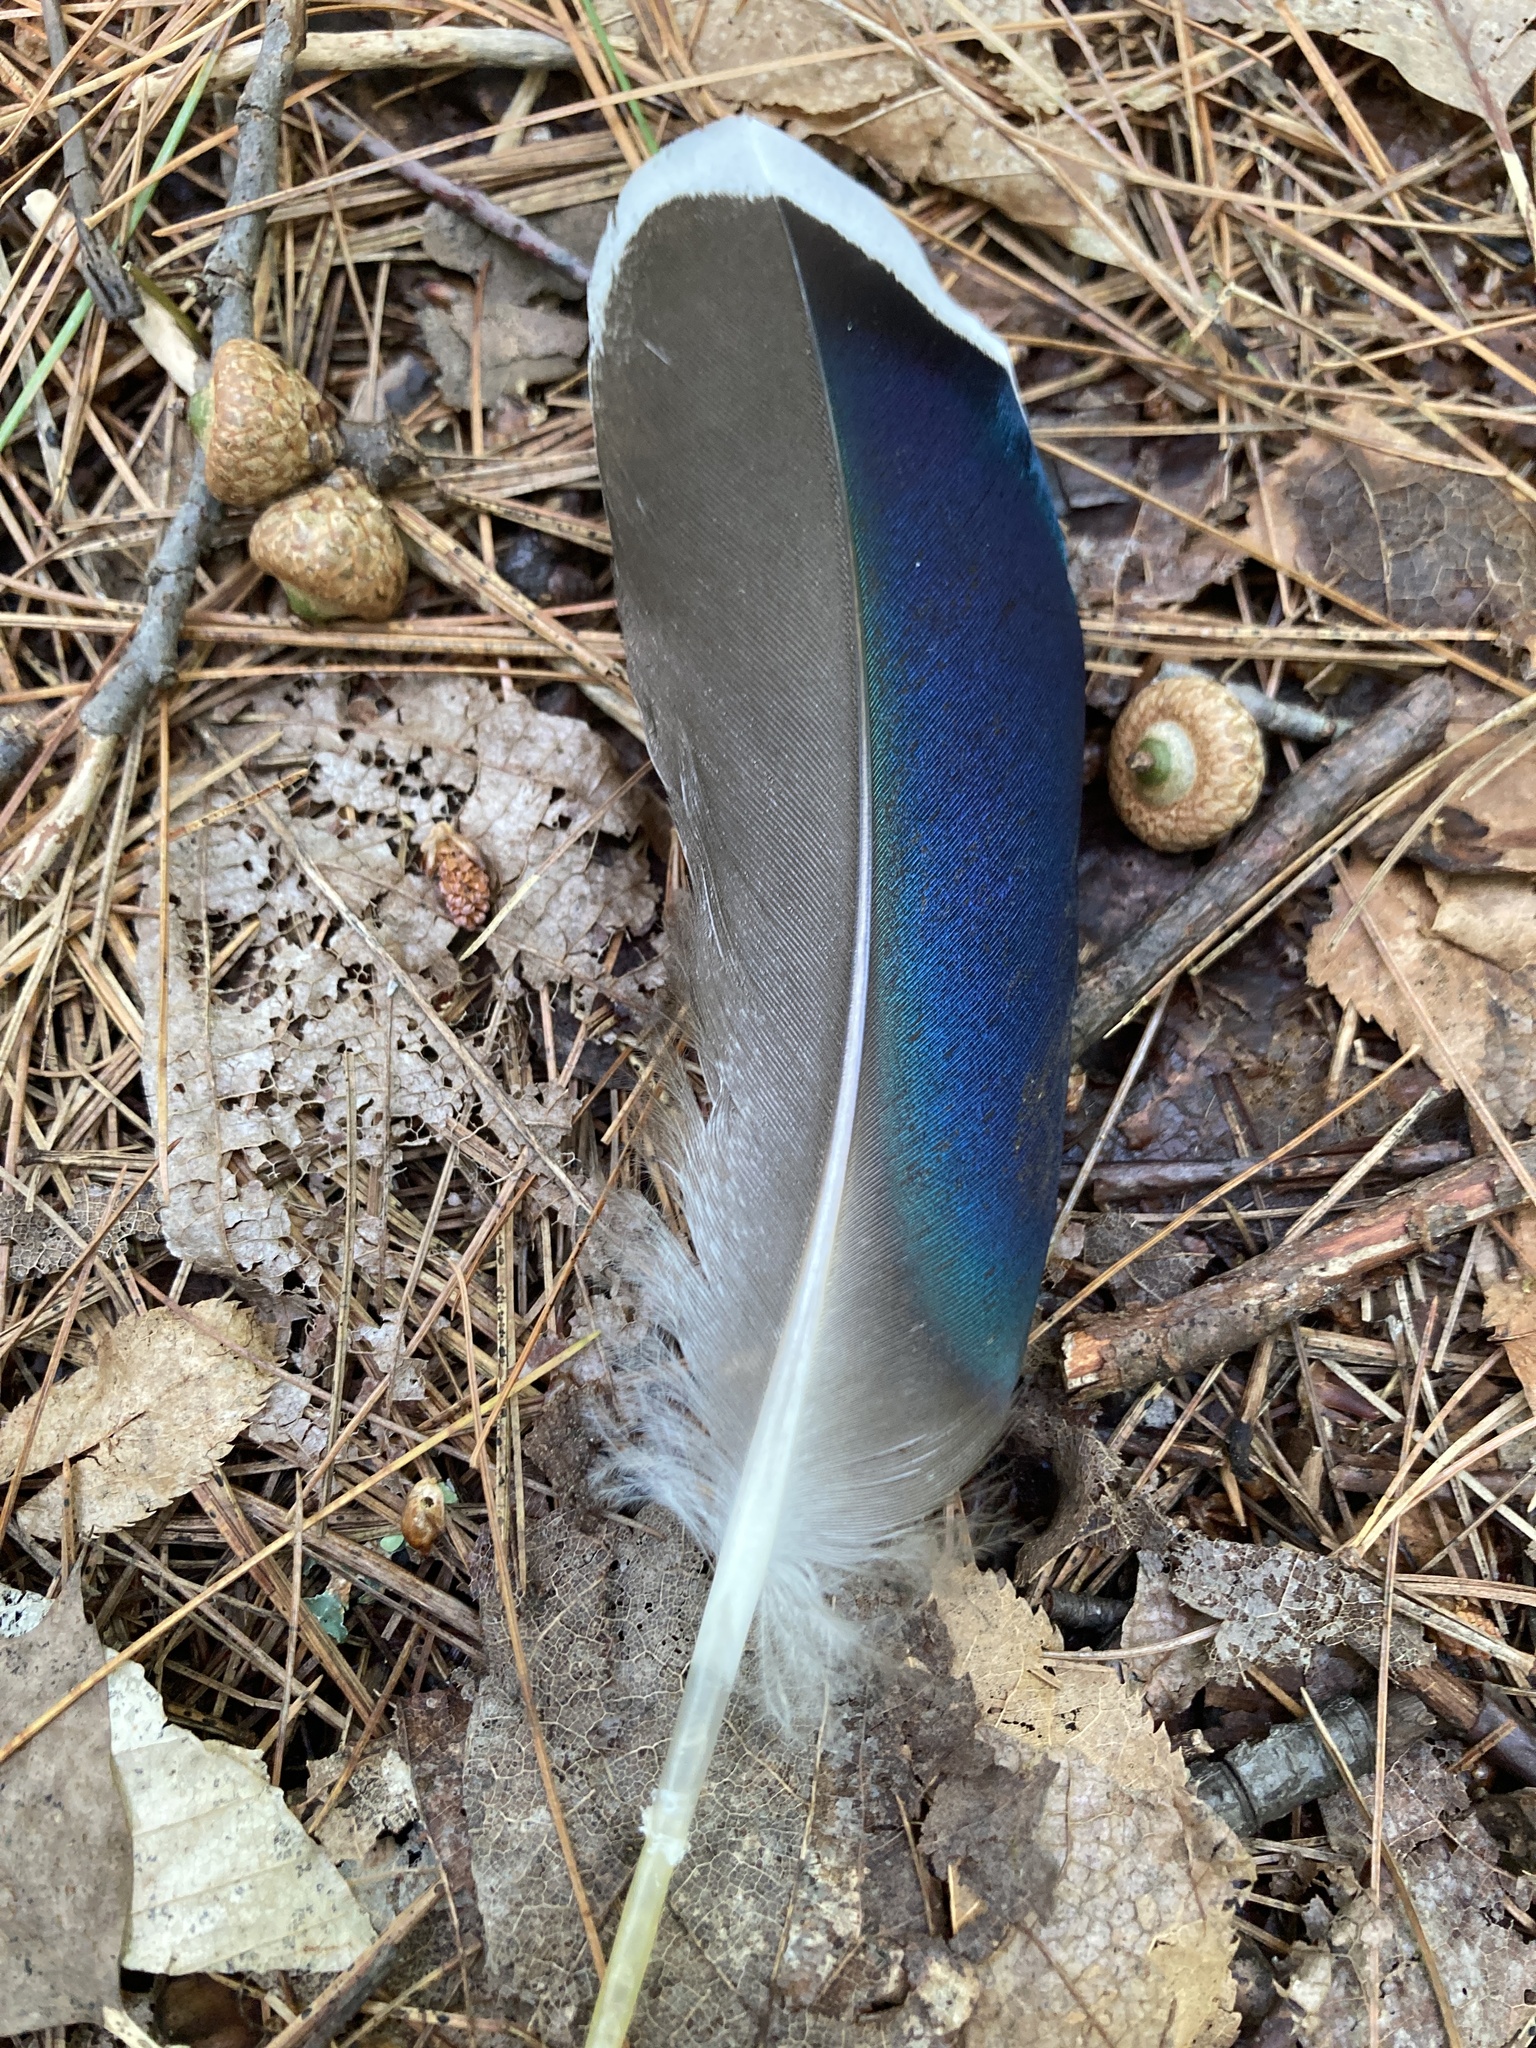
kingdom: Animalia
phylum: Chordata
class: Aves
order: Anseriformes
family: Anatidae
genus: Anas
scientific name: Anas platyrhynchos
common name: Mallard
